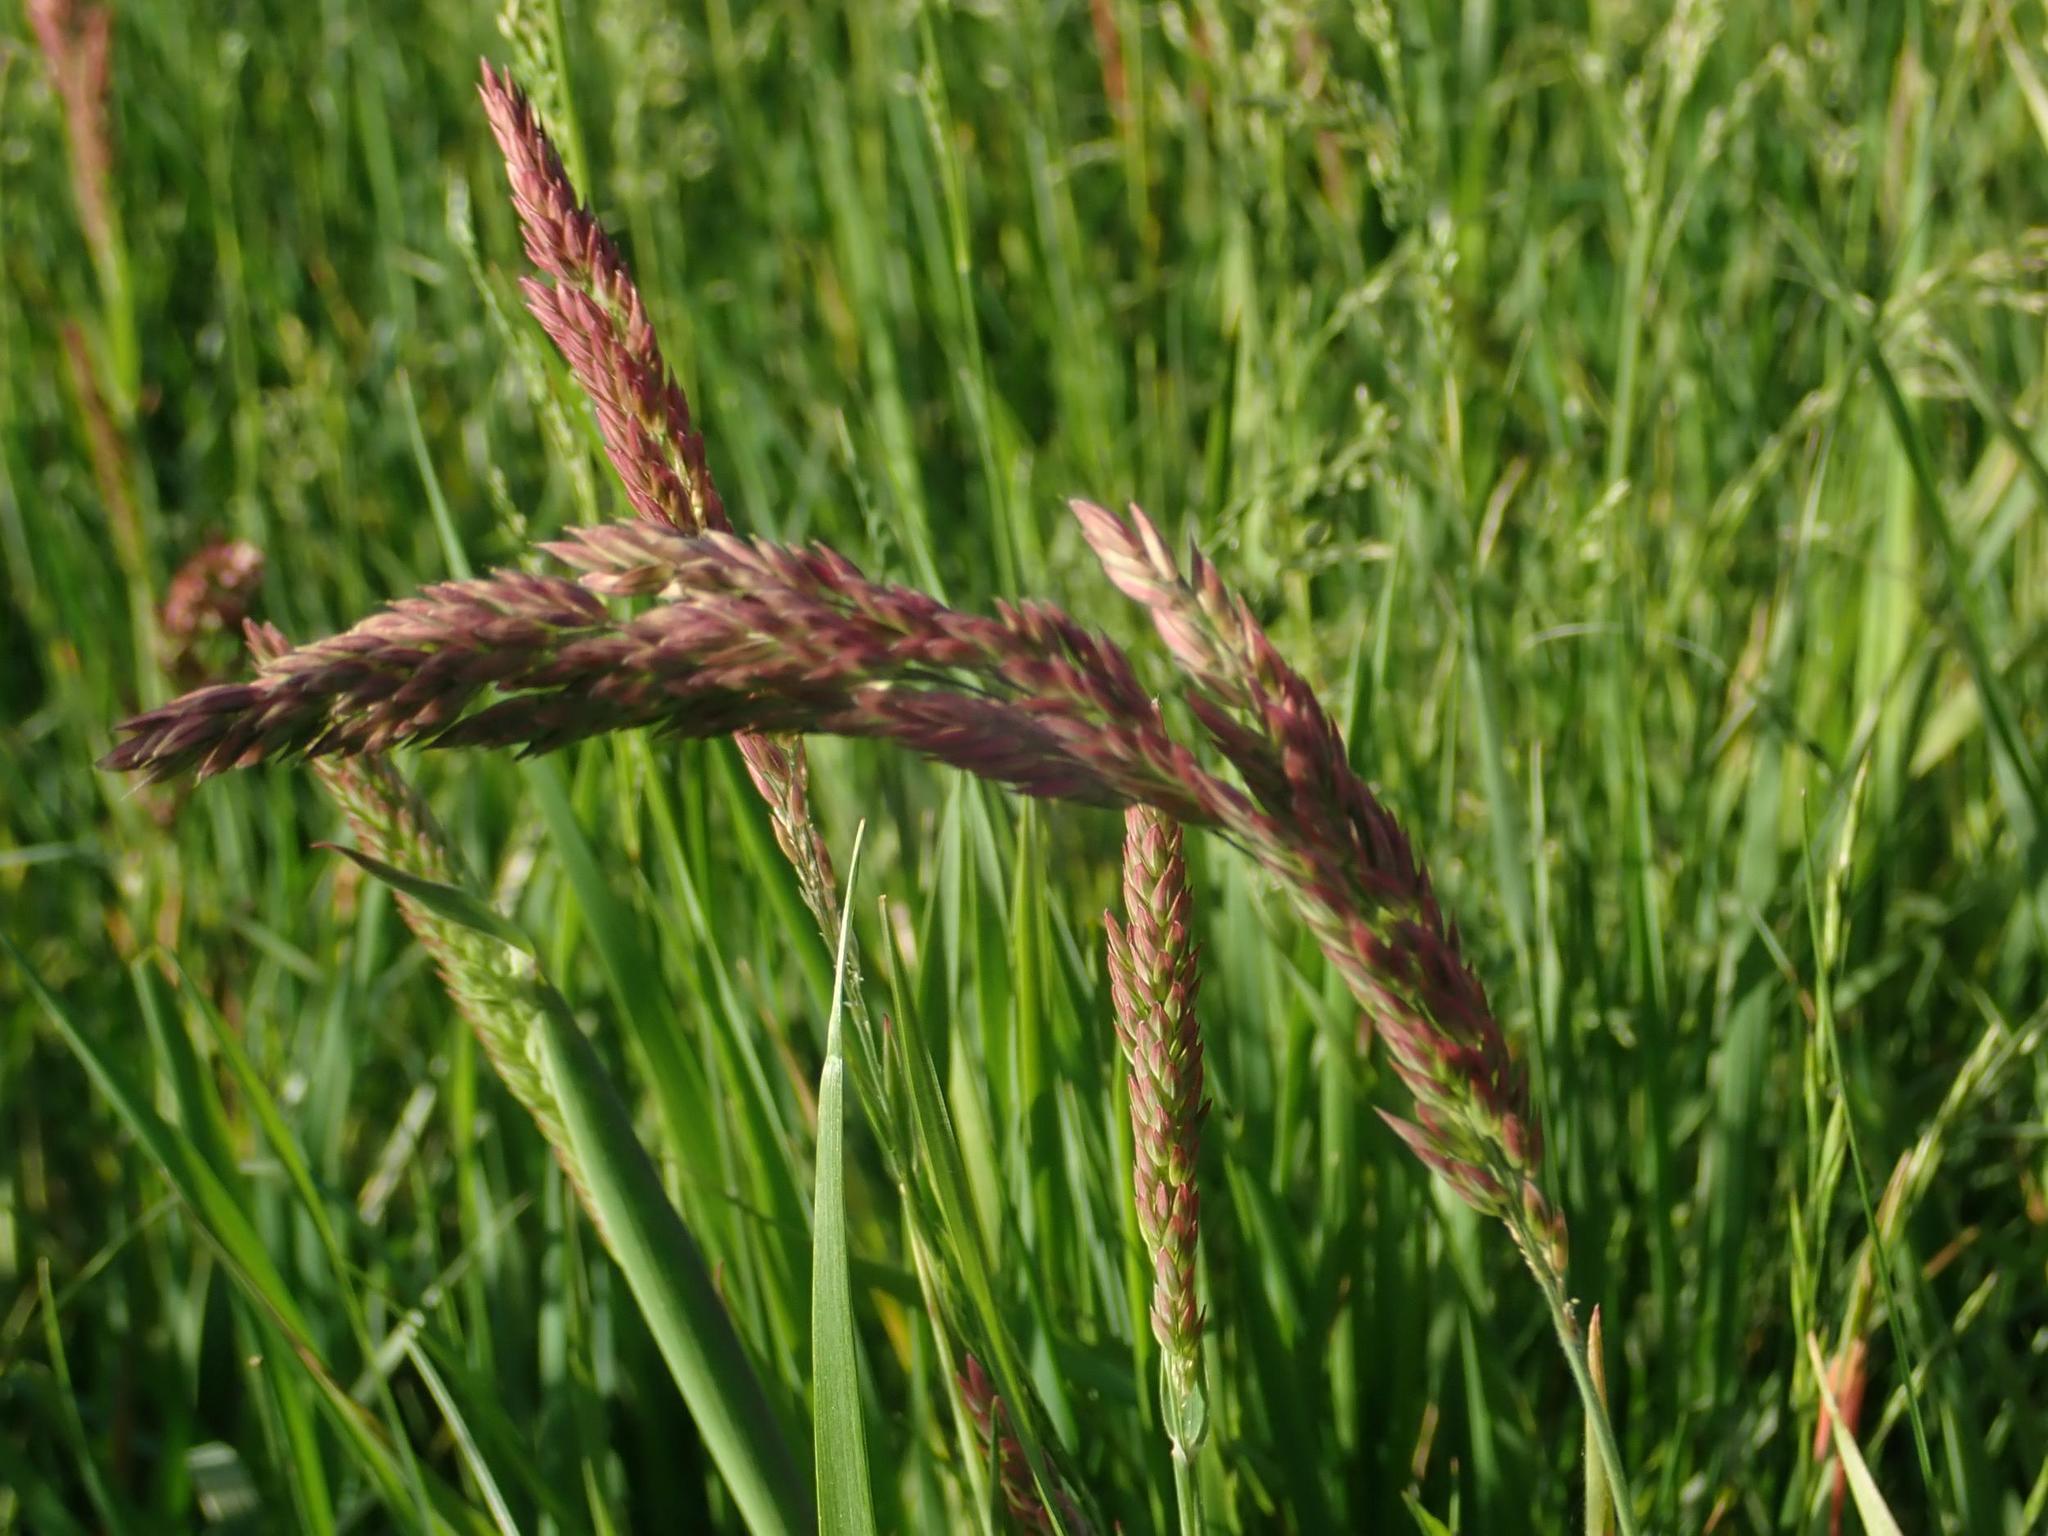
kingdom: Plantae
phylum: Tracheophyta
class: Liliopsida
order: Poales
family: Poaceae
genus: Holcus
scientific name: Holcus lanatus
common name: Yorkshire-fog
